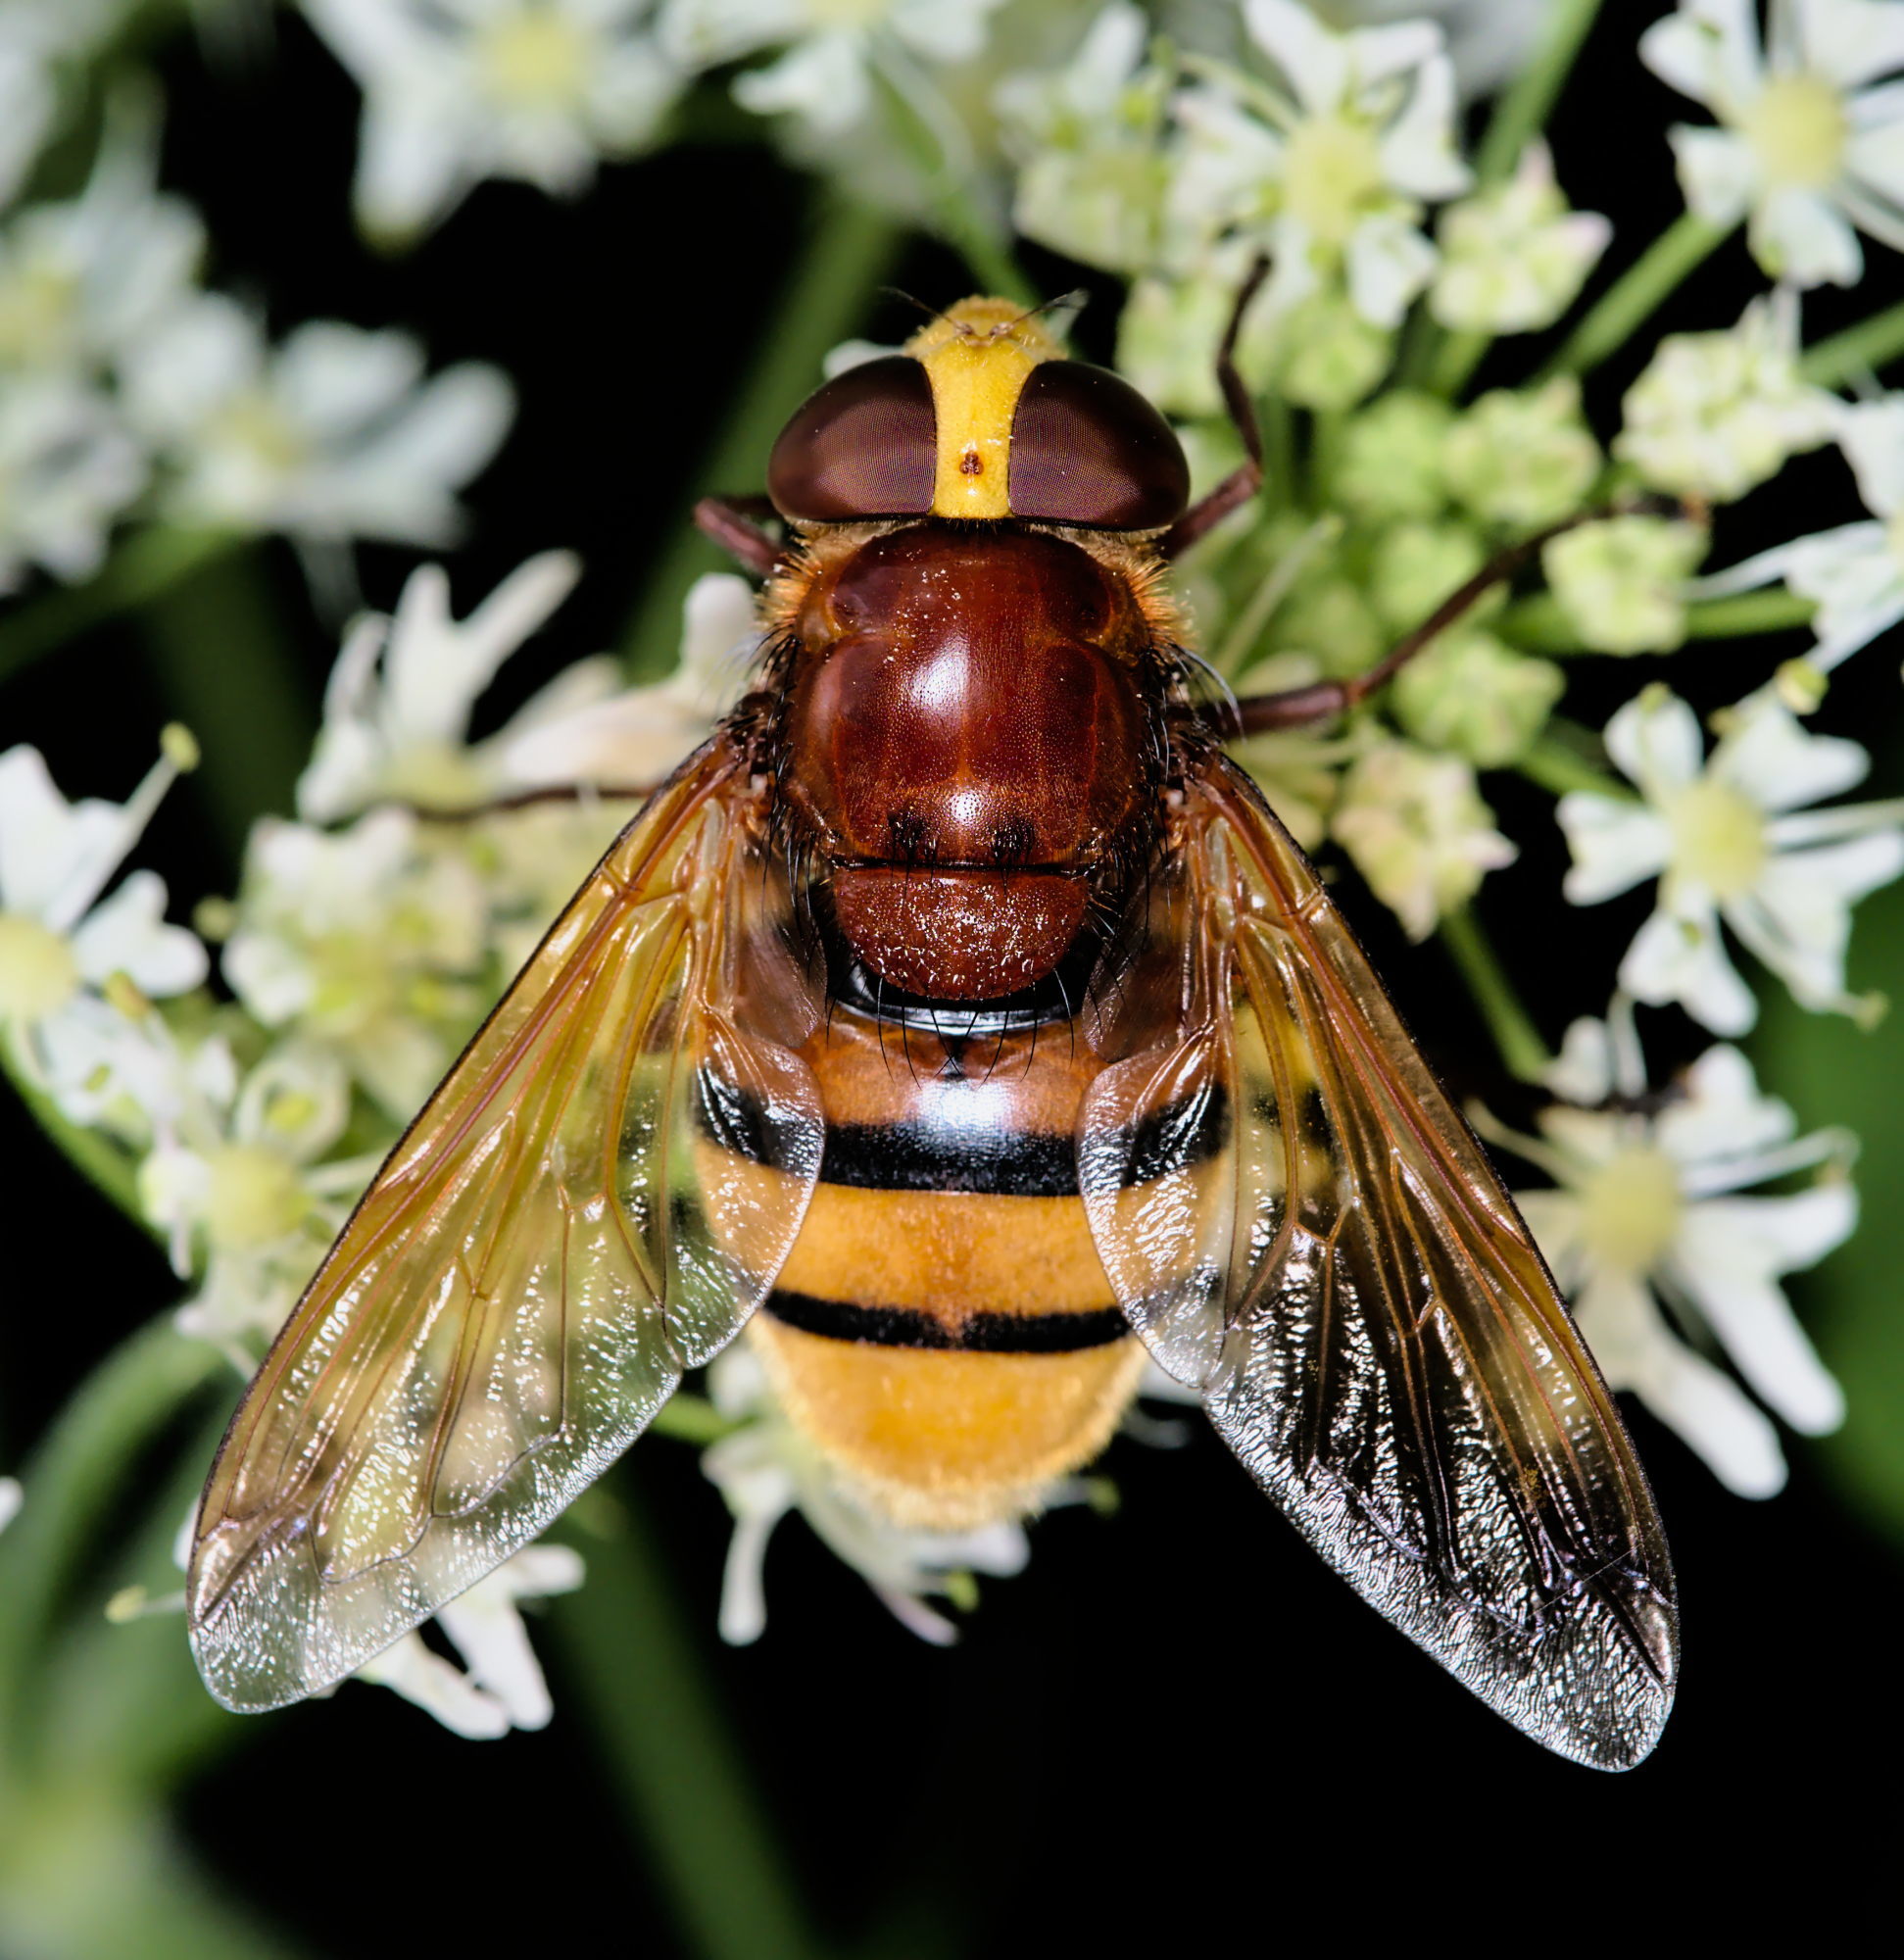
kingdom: Animalia
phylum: Arthropoda
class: Insecta
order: Diptera
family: Syrphidae
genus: Volucella
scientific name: Volucella zonaria
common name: Hornet hoverfly
